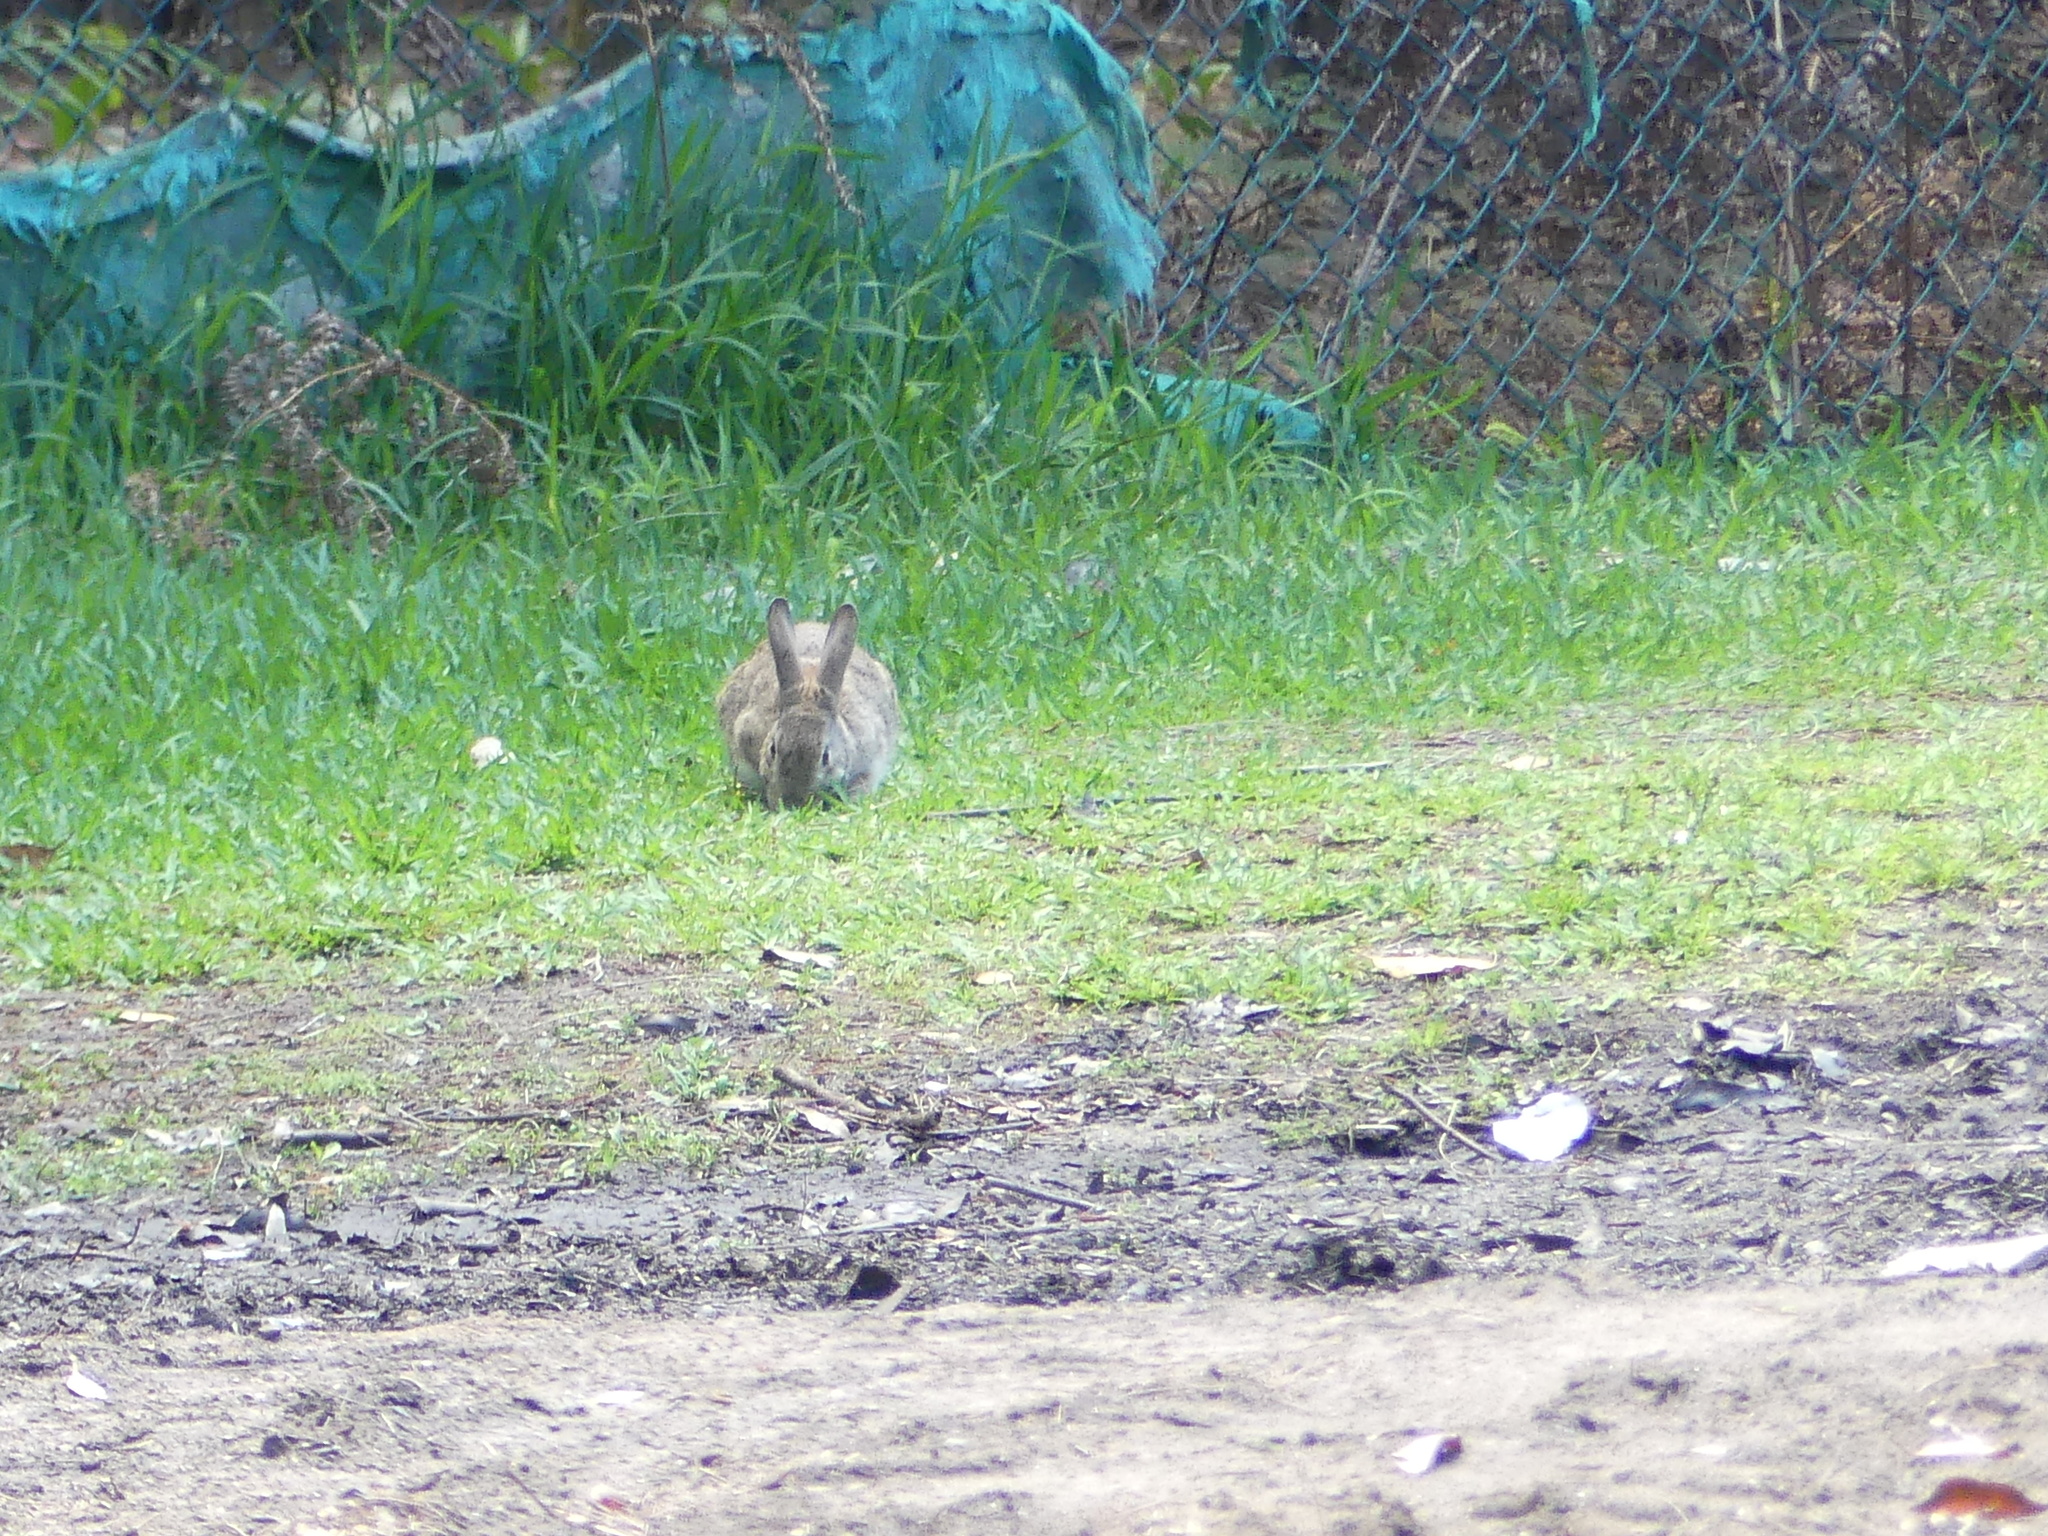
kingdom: Animalia
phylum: Chordata
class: Mammalia
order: Lagomorpha
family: Leporidae
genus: Oryctolagus
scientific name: Oryctolagus cuniculus
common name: European rabbit
